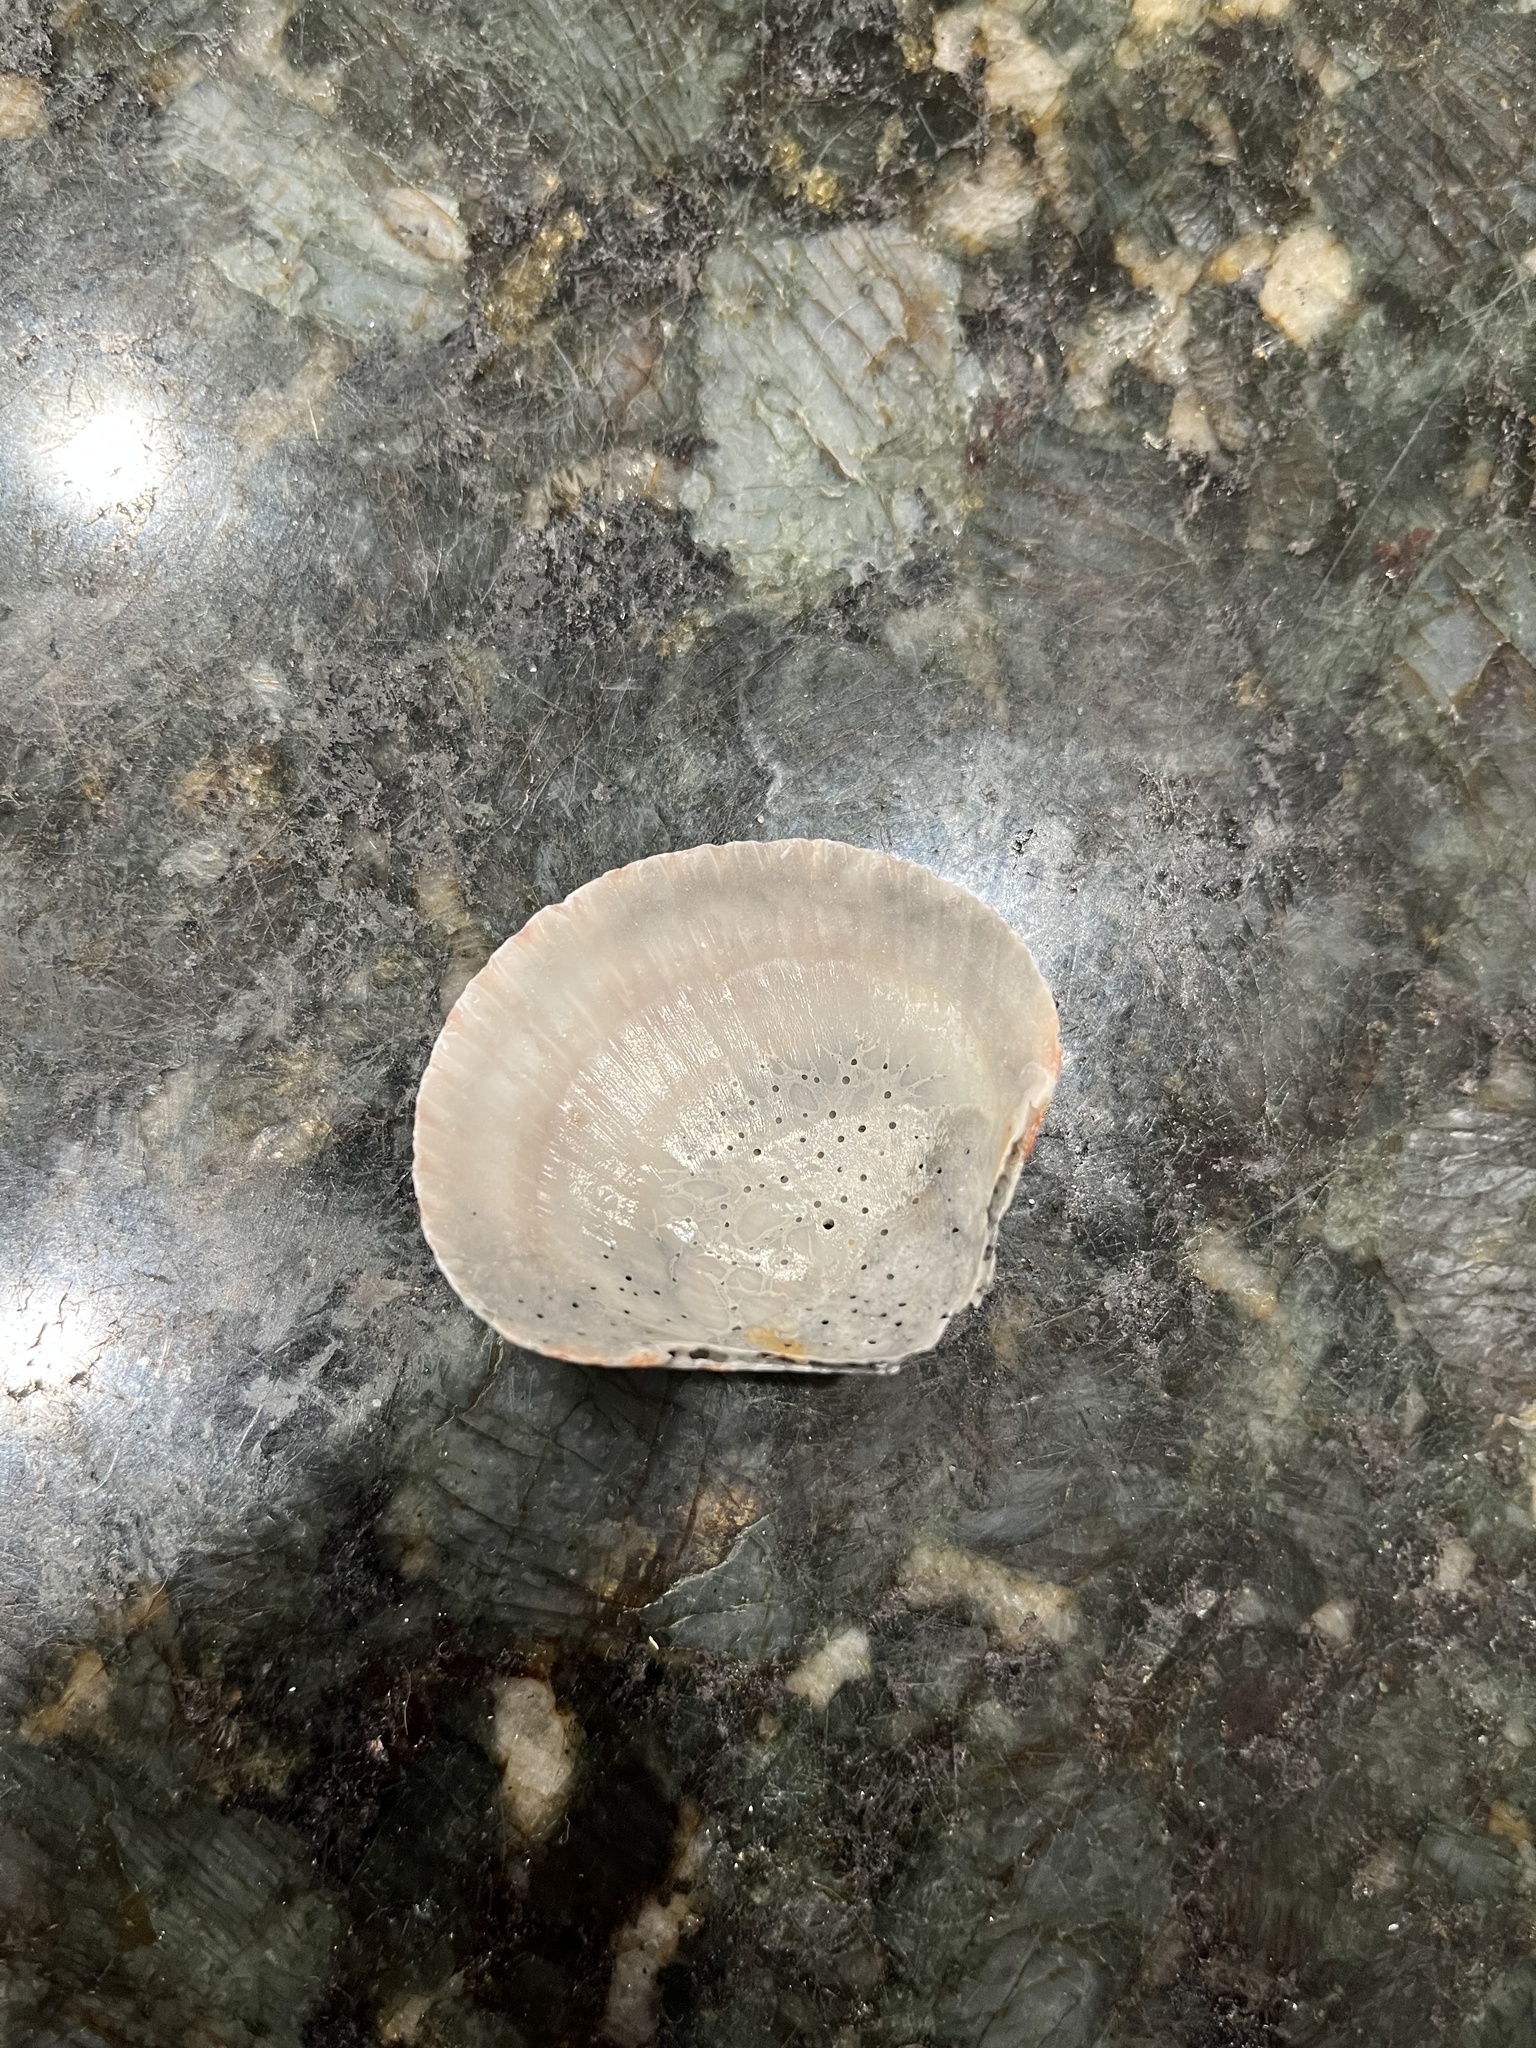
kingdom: Animalia
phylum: Mollusca
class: Bivalvia
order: Pectinida
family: Pectinidae
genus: Argopecten
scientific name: Argopecten gibbus
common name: Atlantic calico scallop
